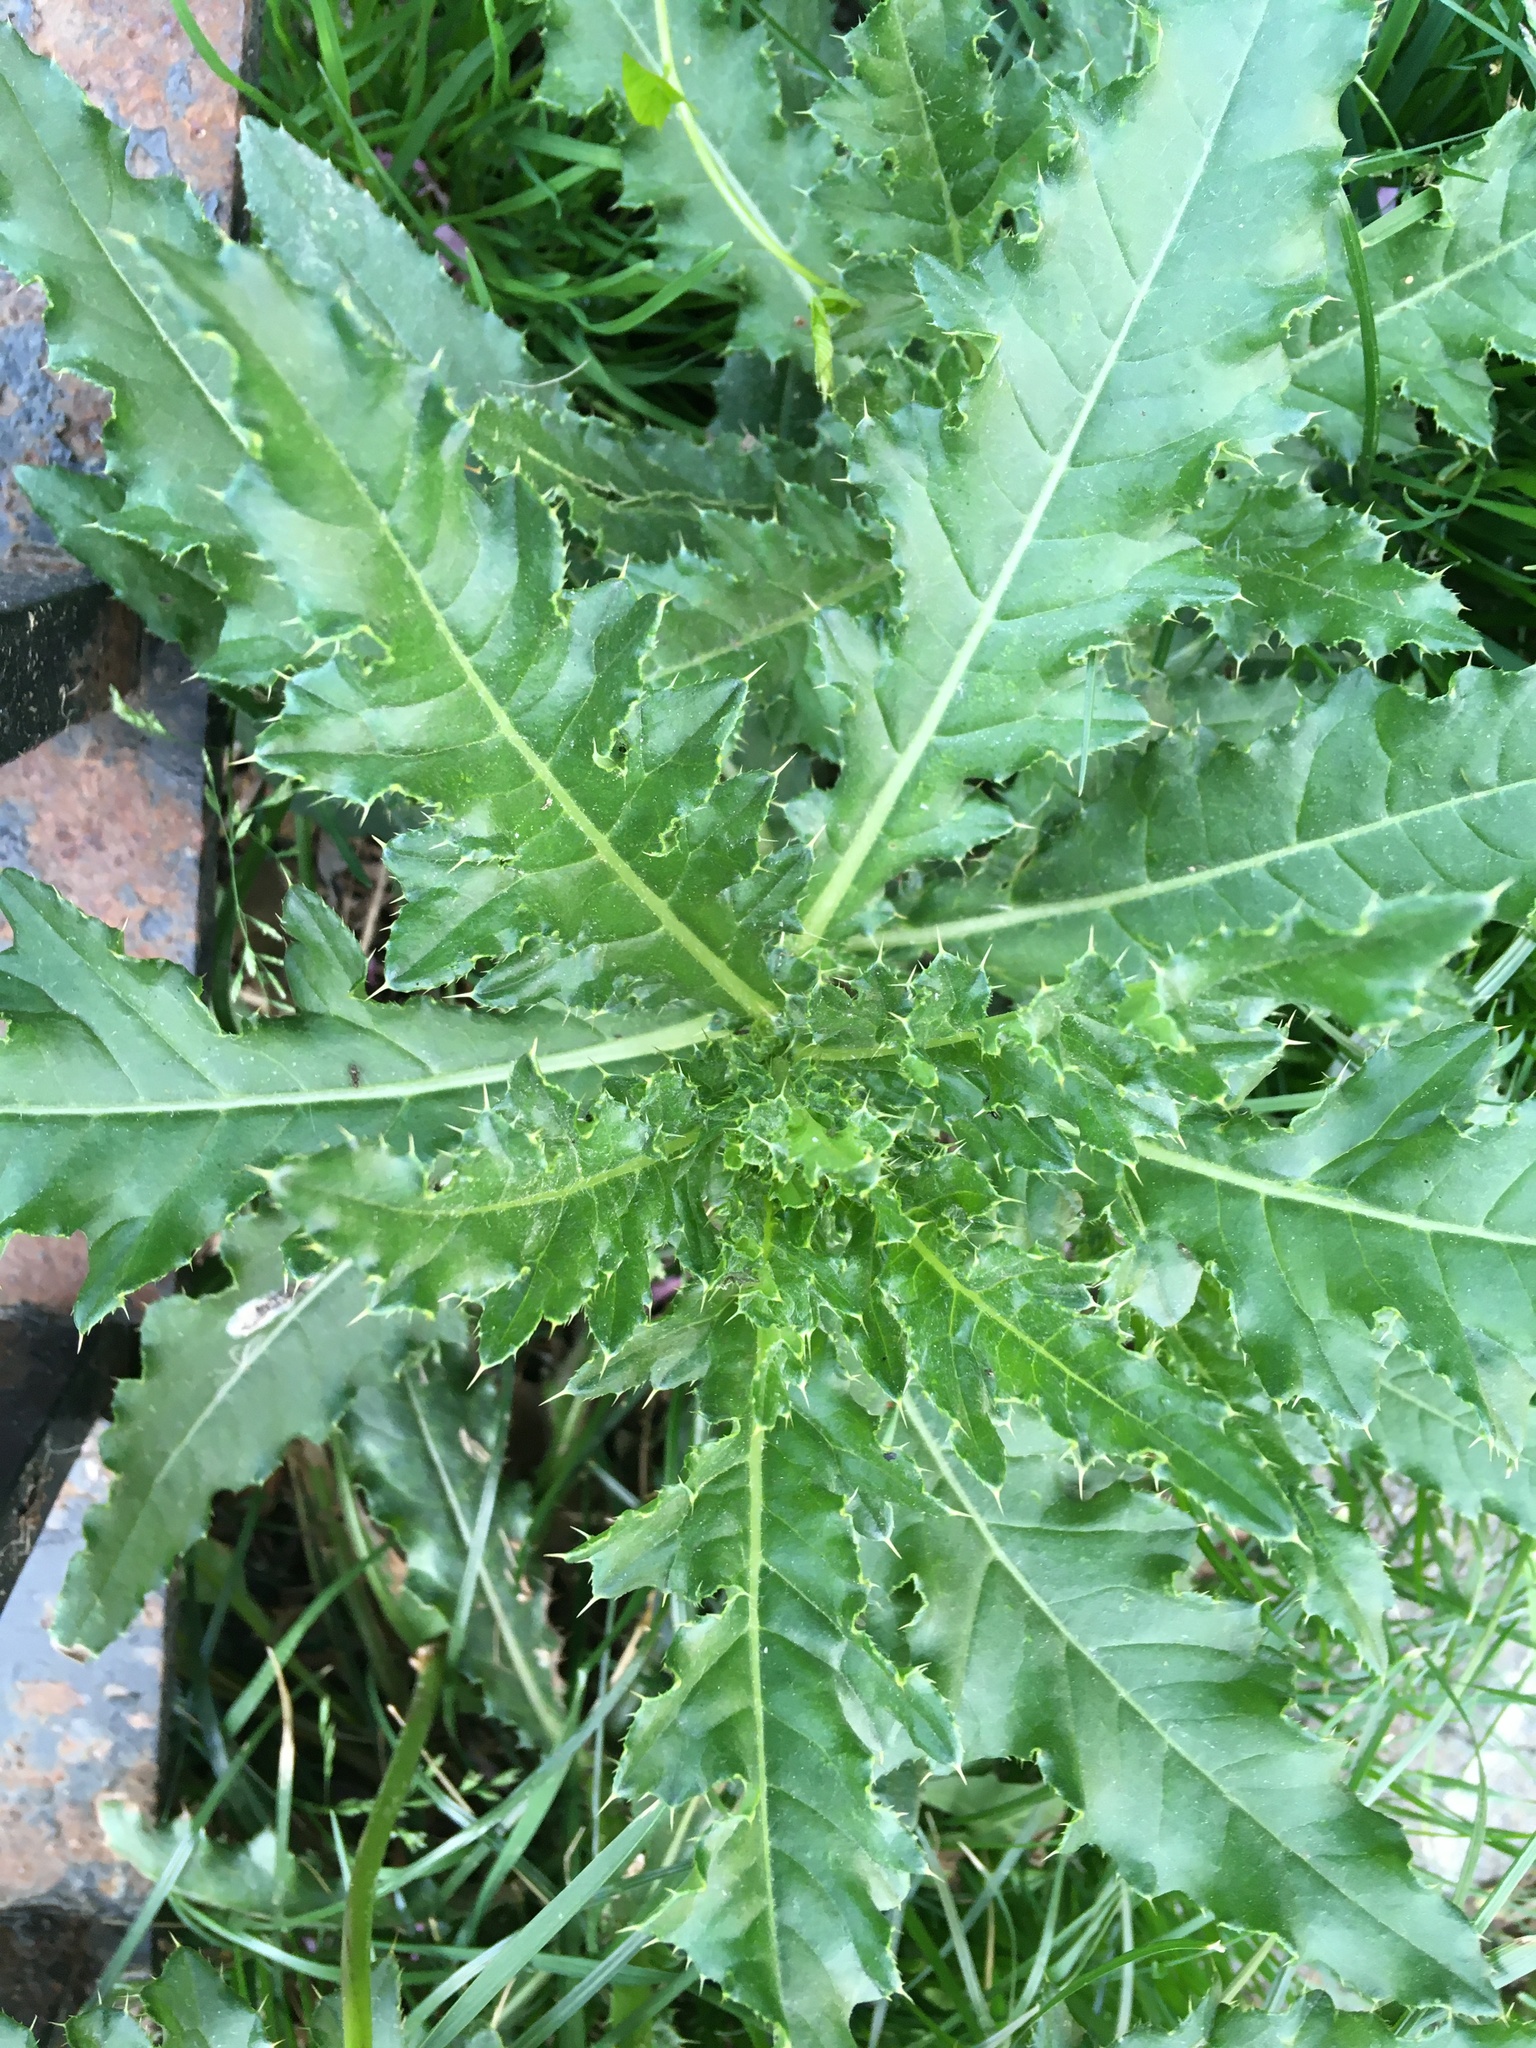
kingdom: Plantae
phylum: Tracheophyta
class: Magnoliopsida
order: Asterales
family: Asteraceae
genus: Cirsium
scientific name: Cirsium arvense
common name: Creeping thistle
